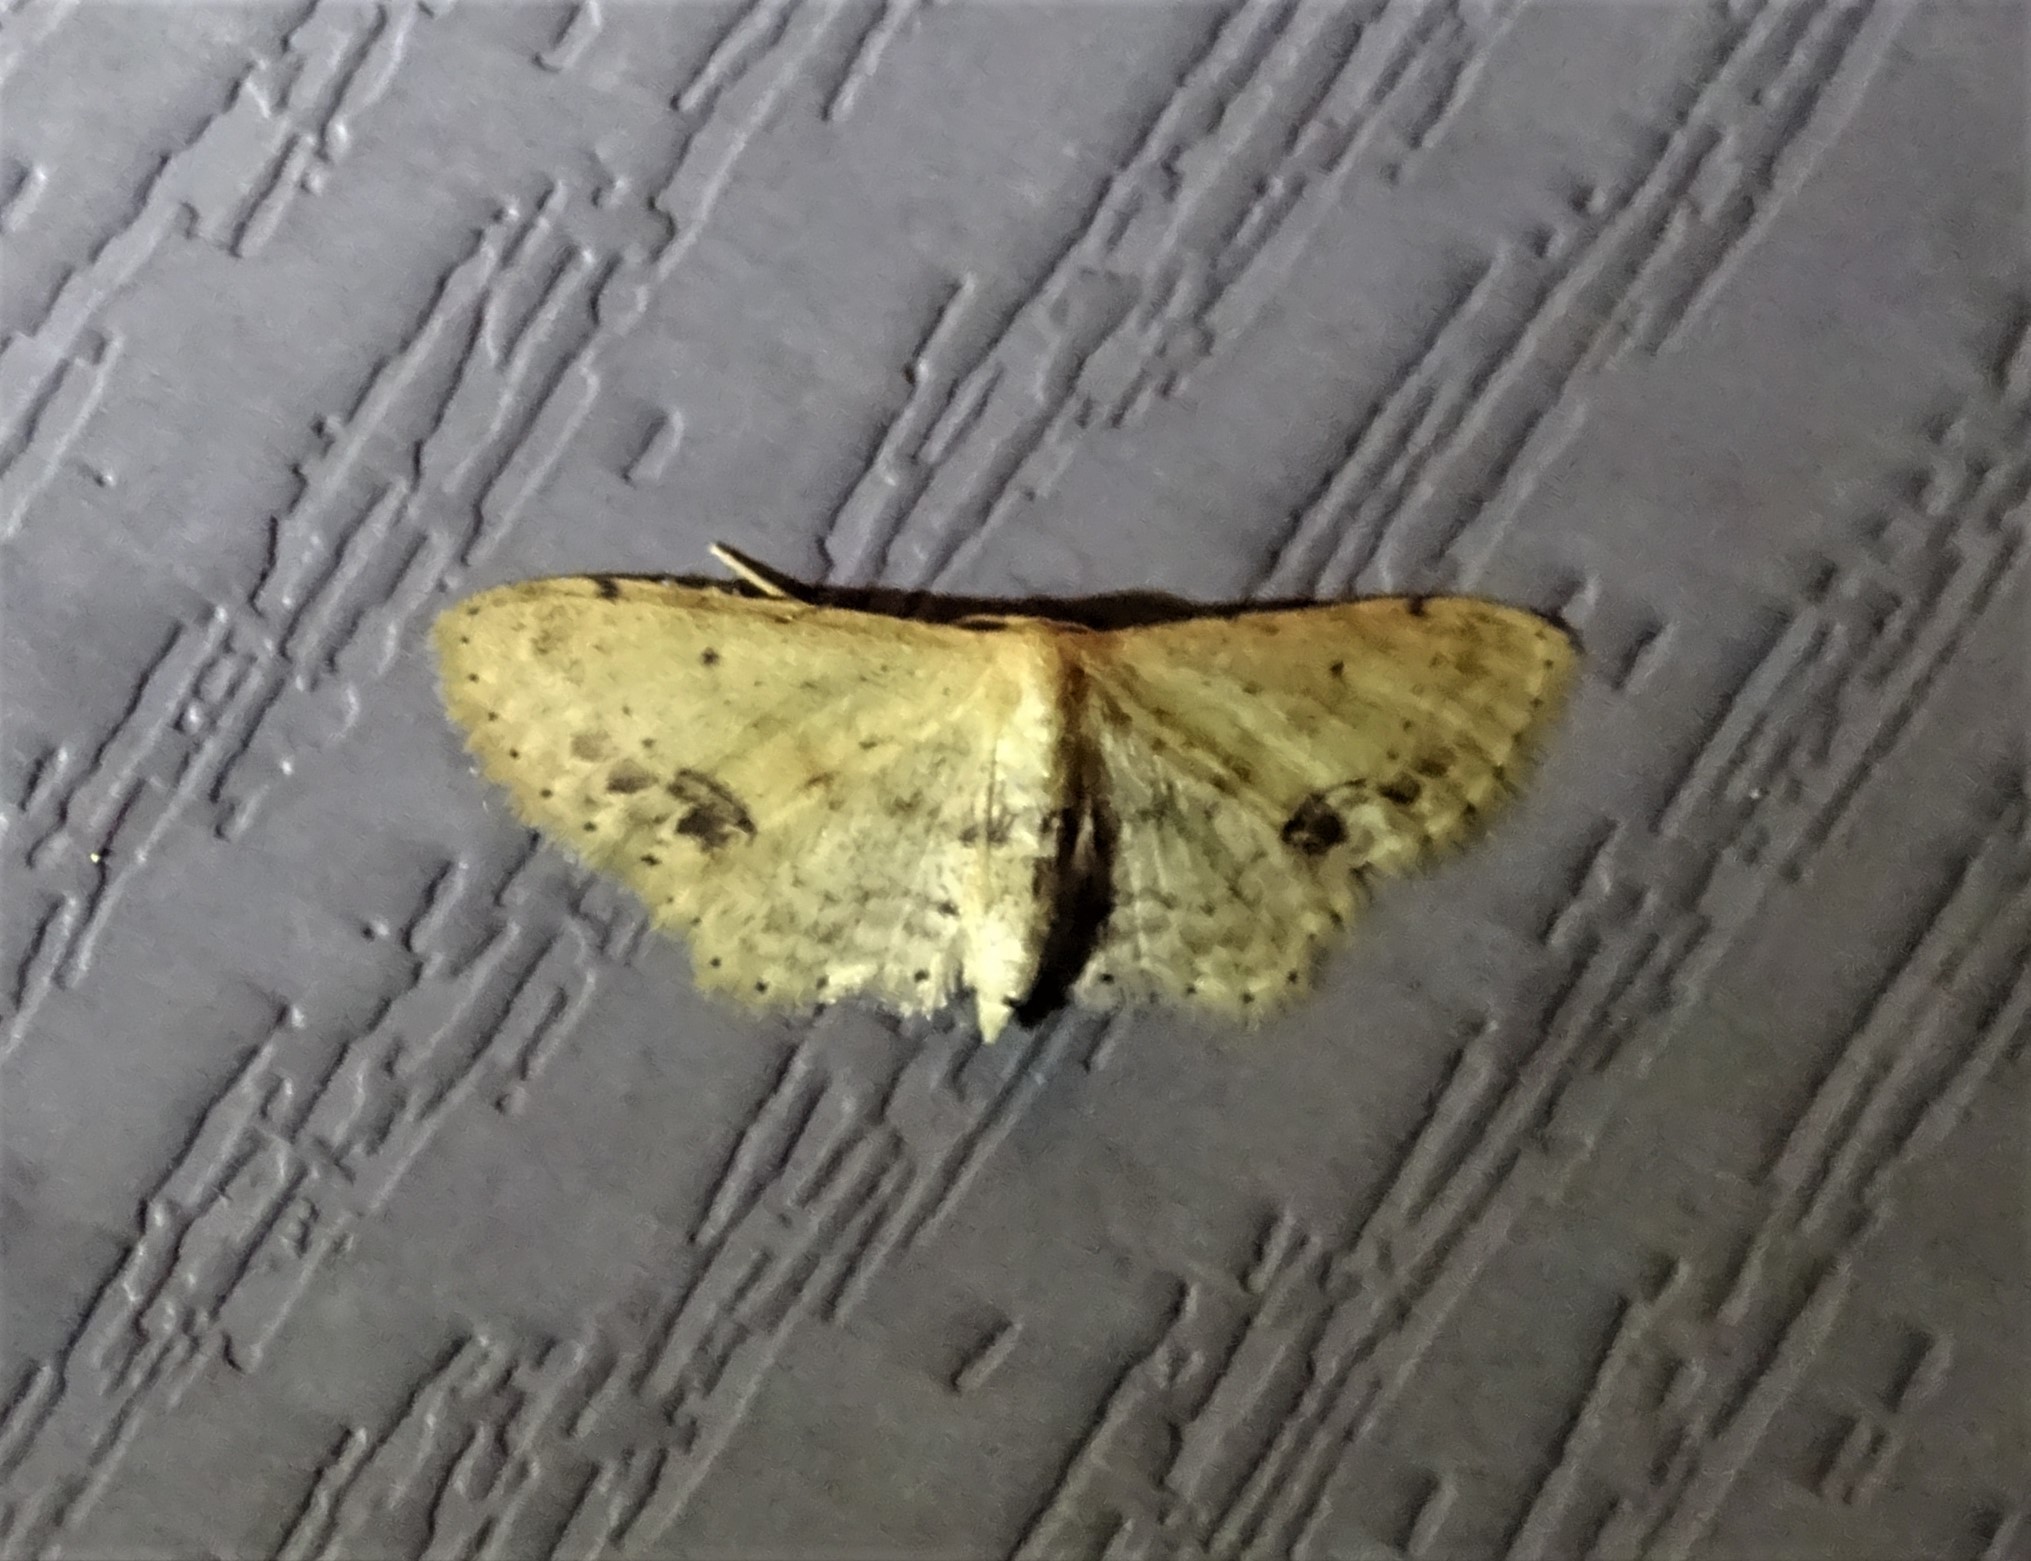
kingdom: Animalia
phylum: Arthropoda
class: Insecta
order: Lepidoptera
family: Geometridae
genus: Idaea
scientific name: Idaea dimidiata
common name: Single-dotted wave
